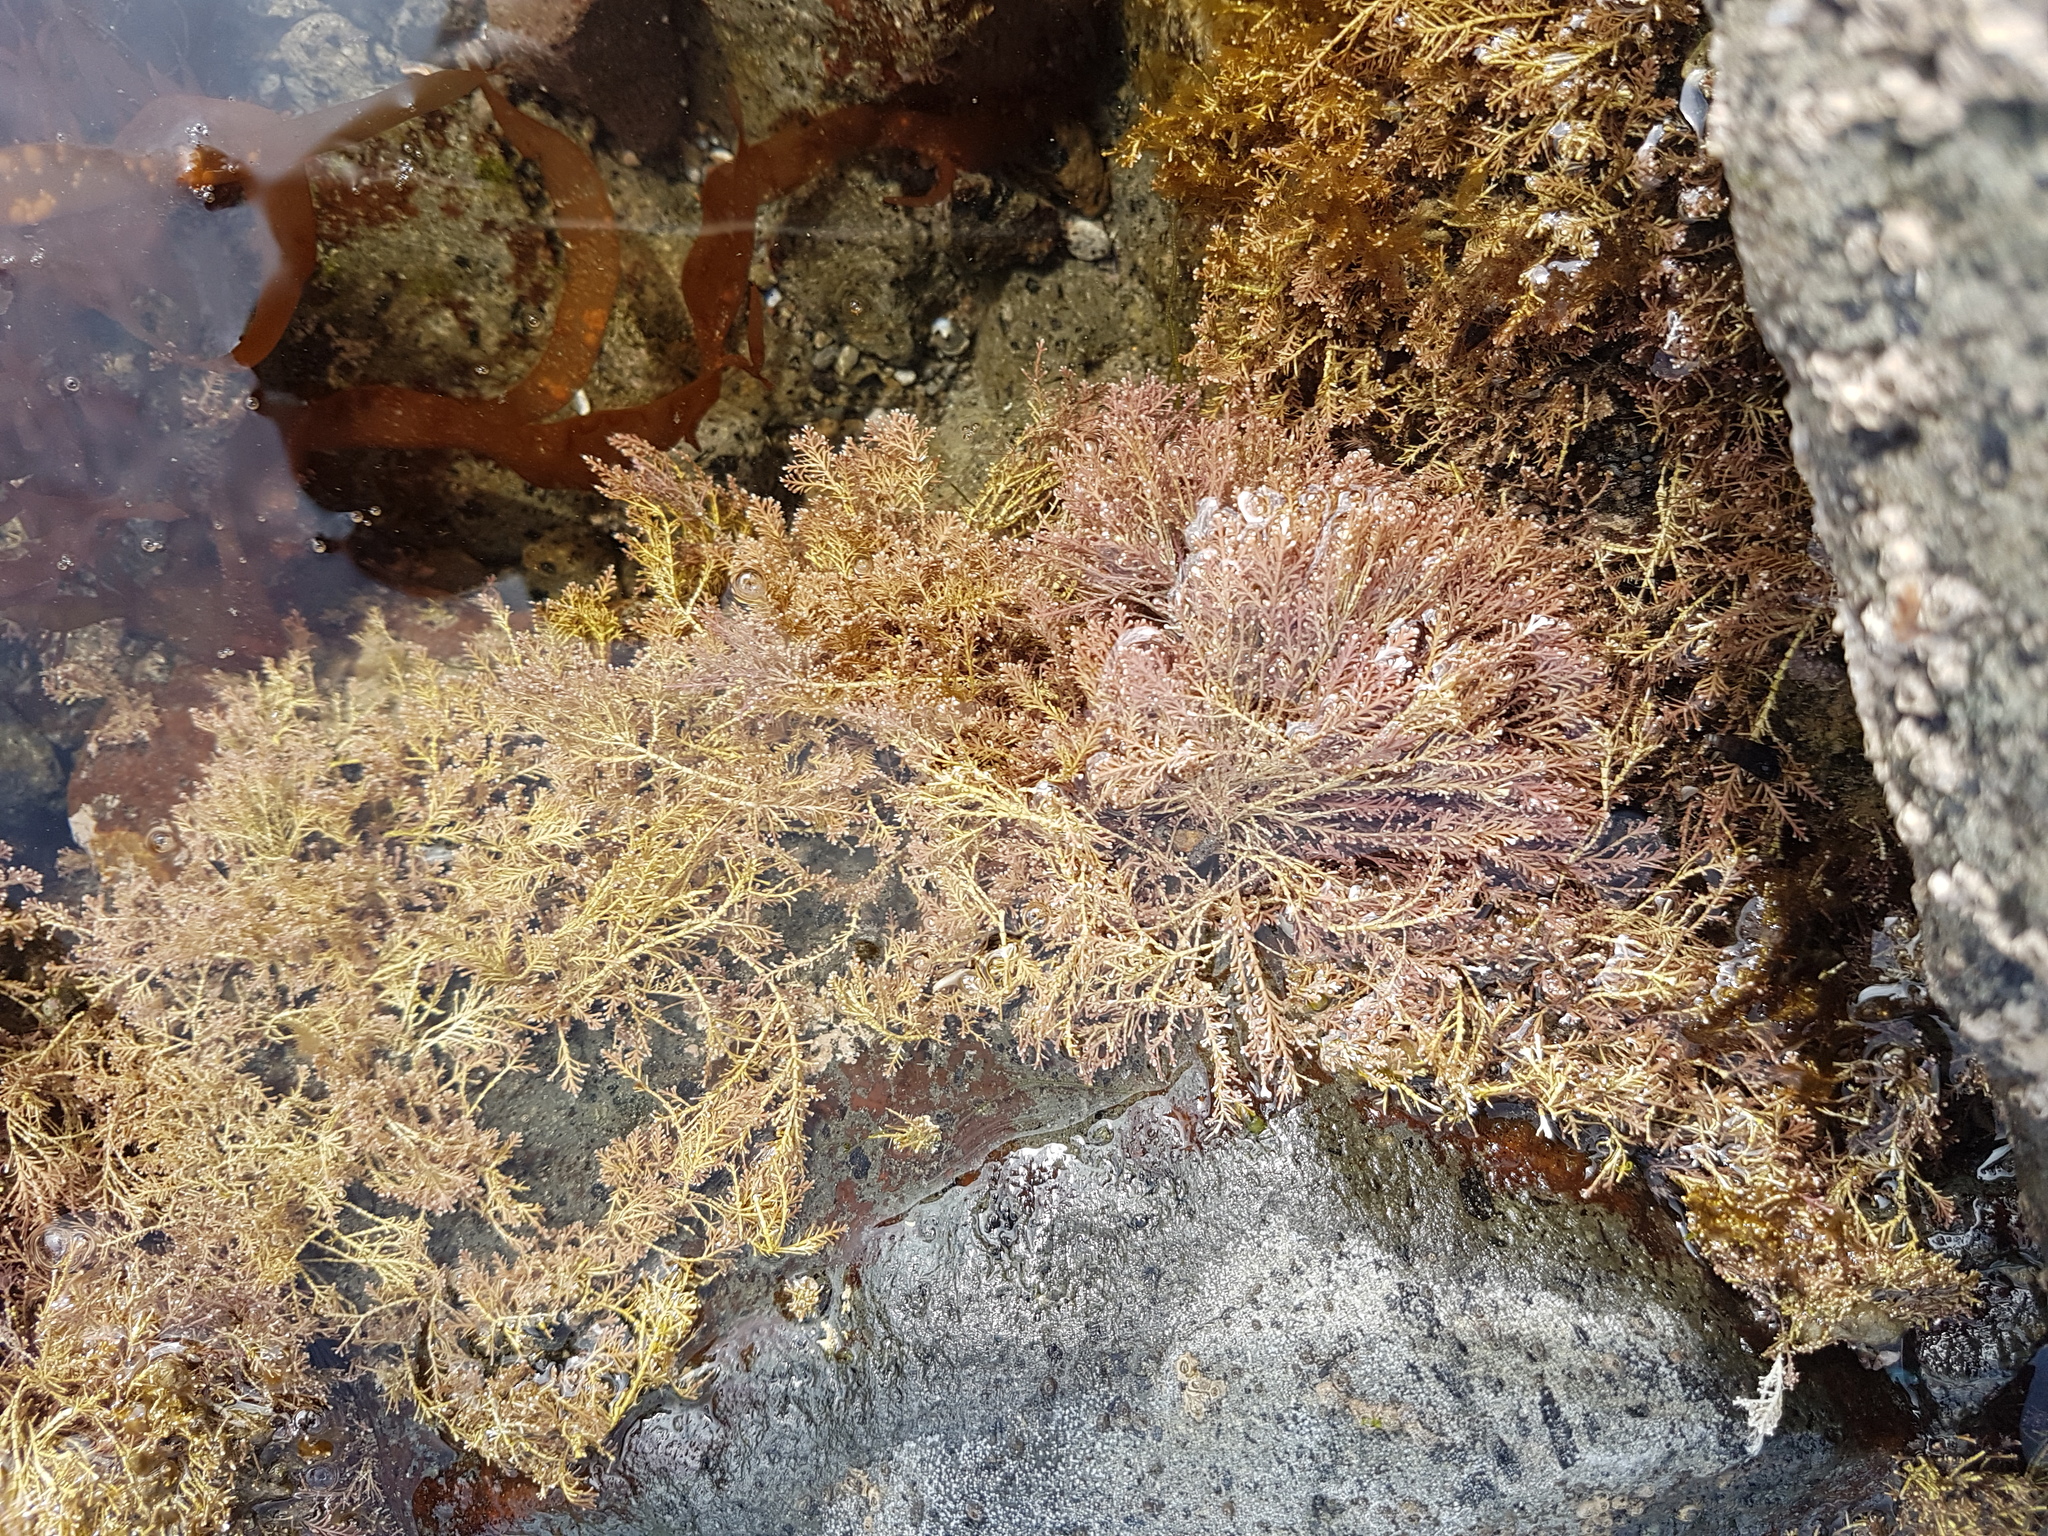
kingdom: Plantae
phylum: Rhodophyta
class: Florideophyceae
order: Corallinales
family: Corallinaceae
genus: Corallina
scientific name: Corallina officinalis
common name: Coral weed
